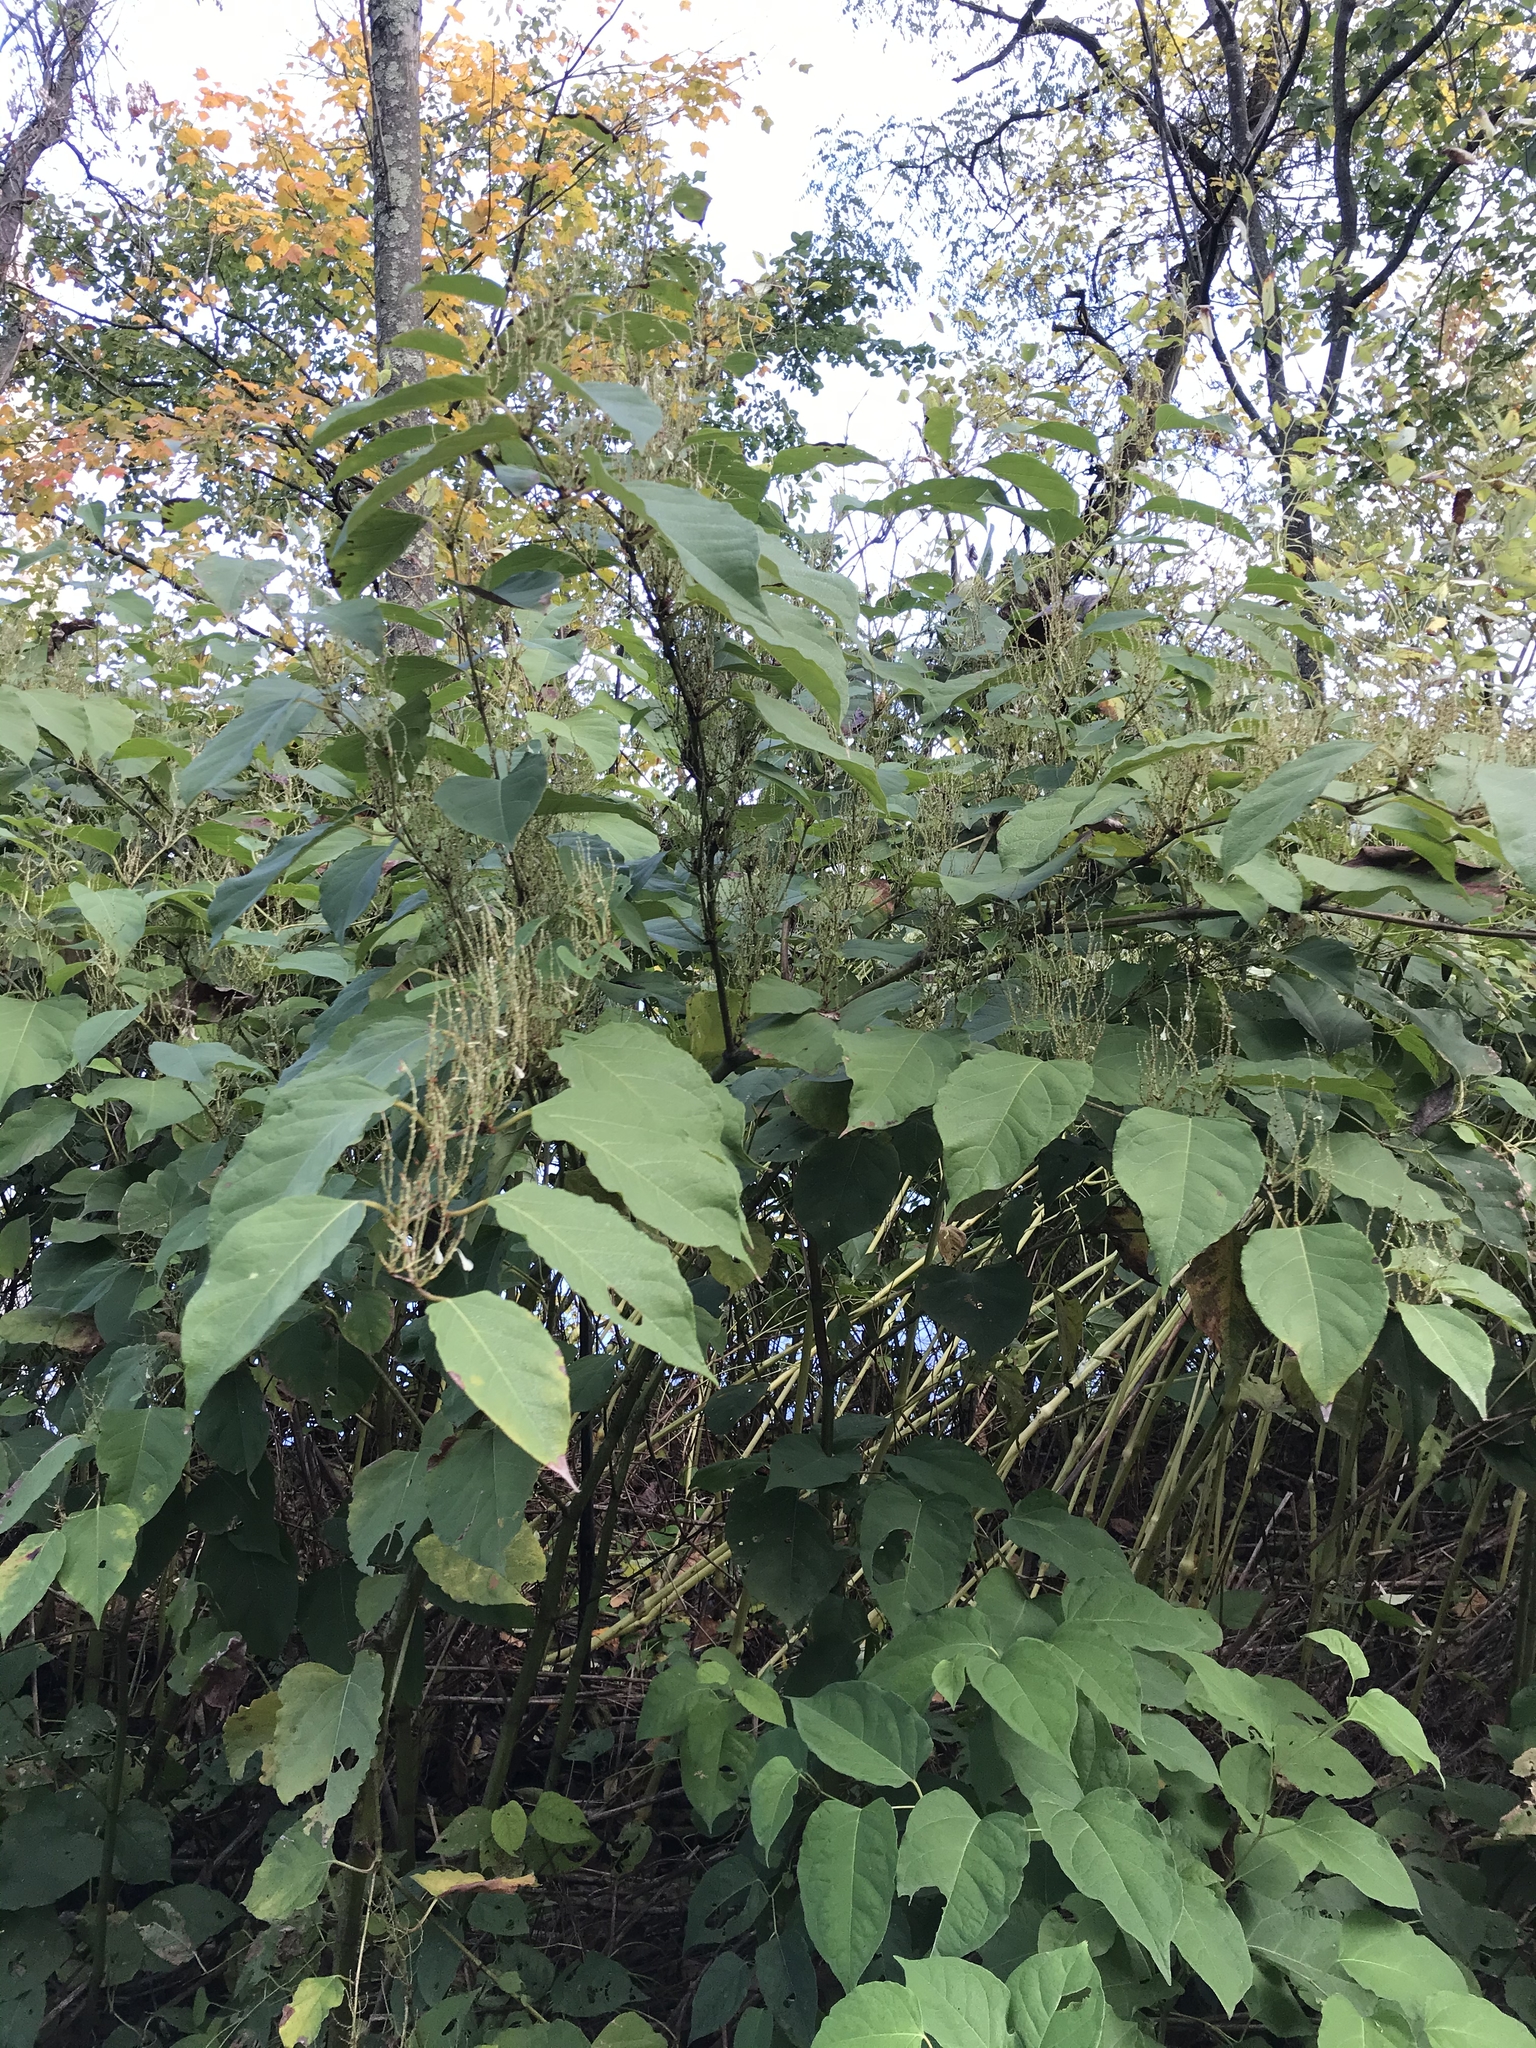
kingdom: Plantae
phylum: Tracheophyta
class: Magnoliopsida
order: Caryophyllales
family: Polygonaceae
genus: Reynoutria
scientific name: Reynoutria bohemica
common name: Bohemian knotweed
